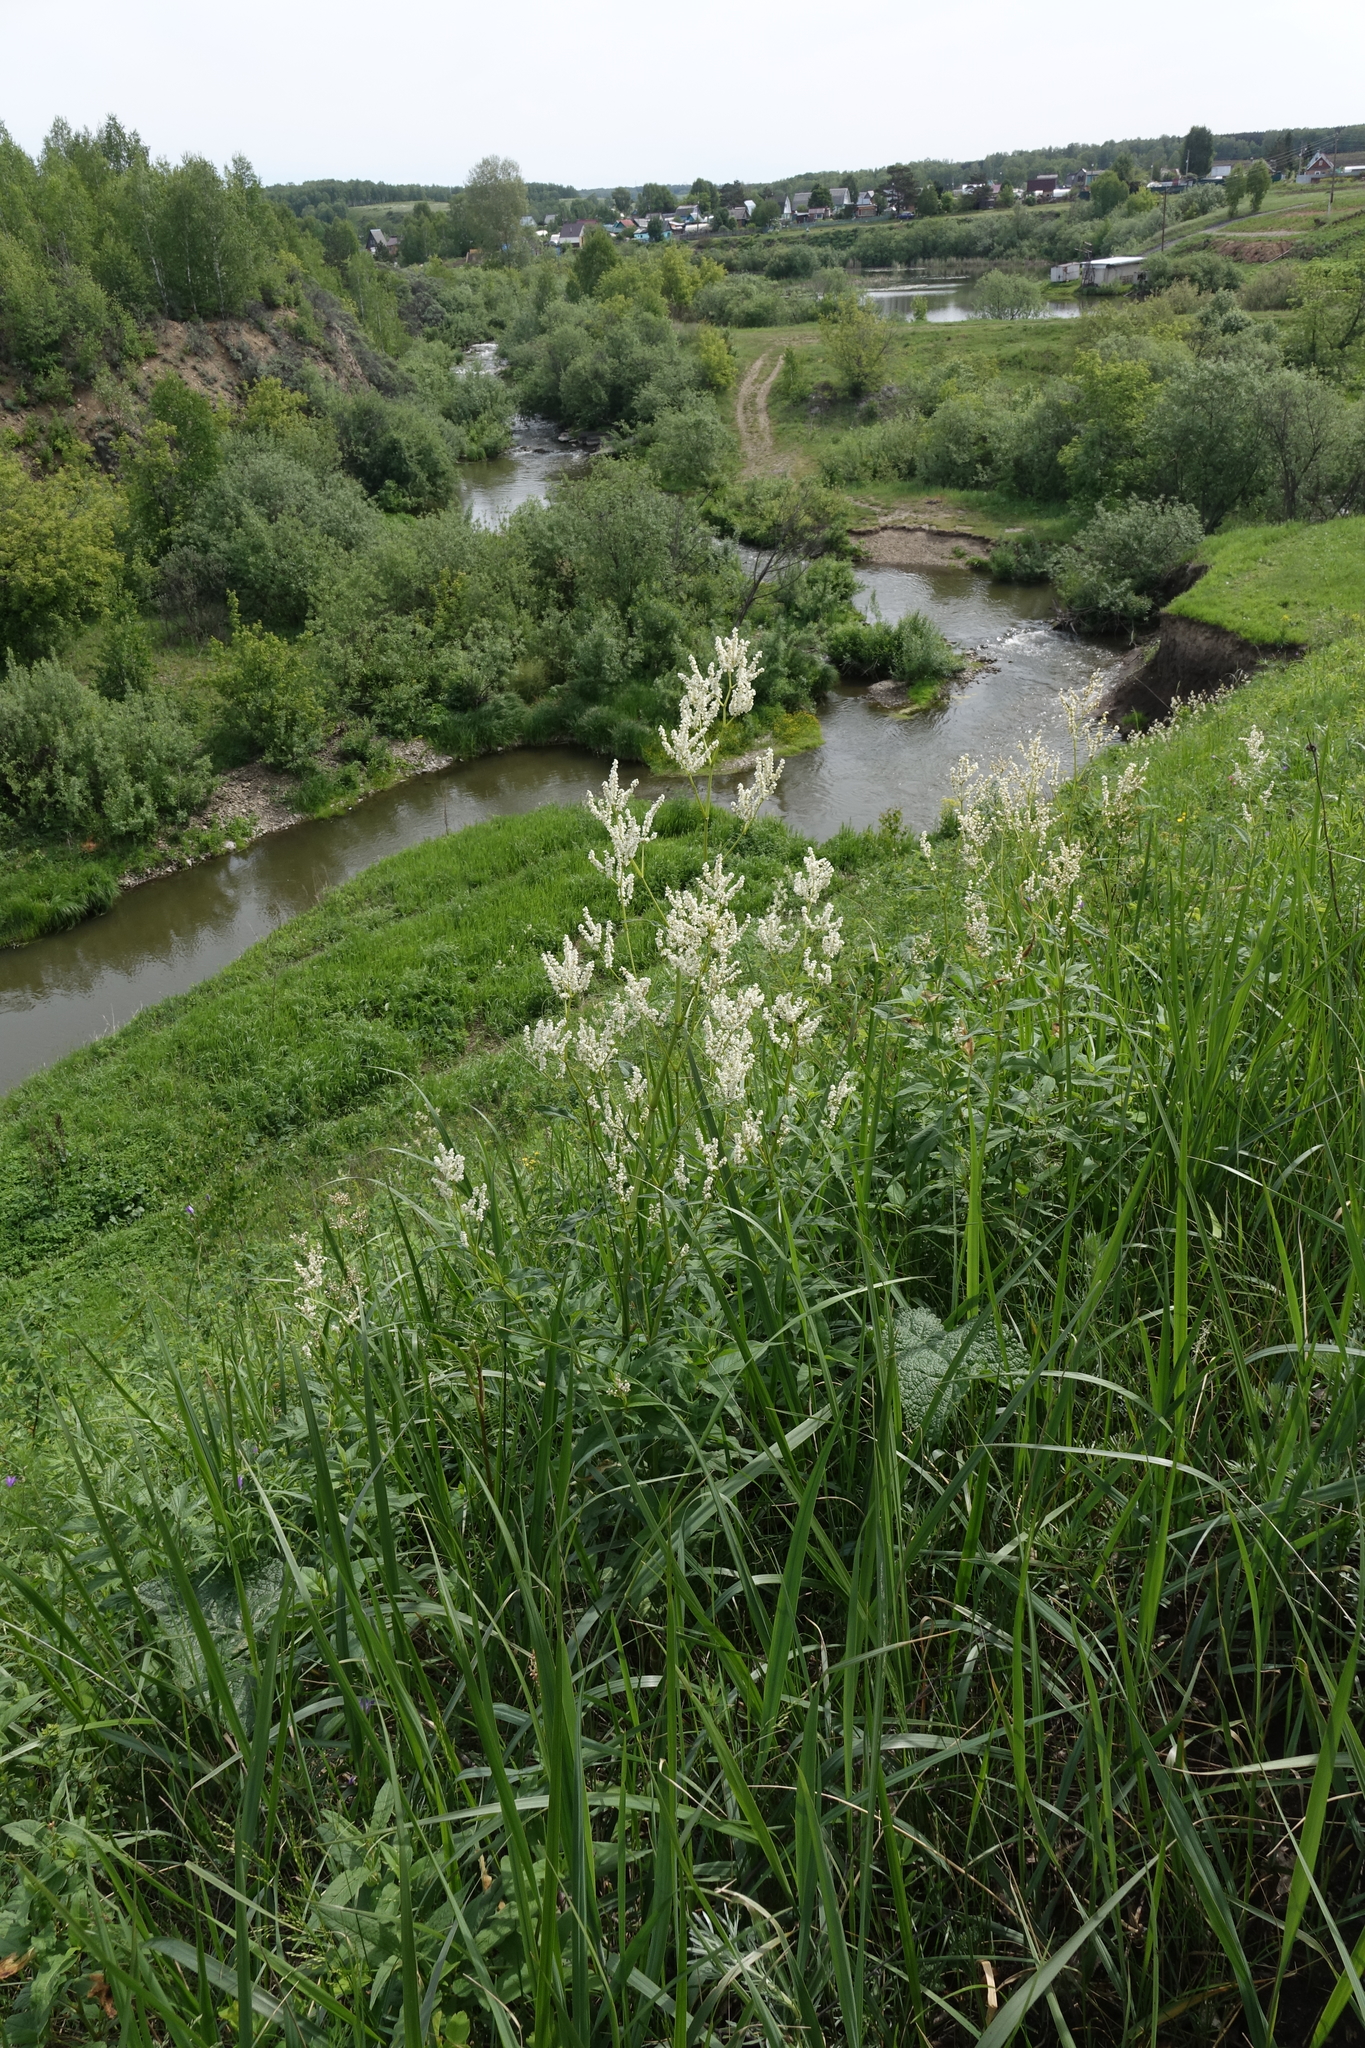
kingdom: Plantae
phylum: Tracheophyta
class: Magnoliopsida
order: Caryophyllales
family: Polygonaceae
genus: Koenigia
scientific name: Koenigia alpina
